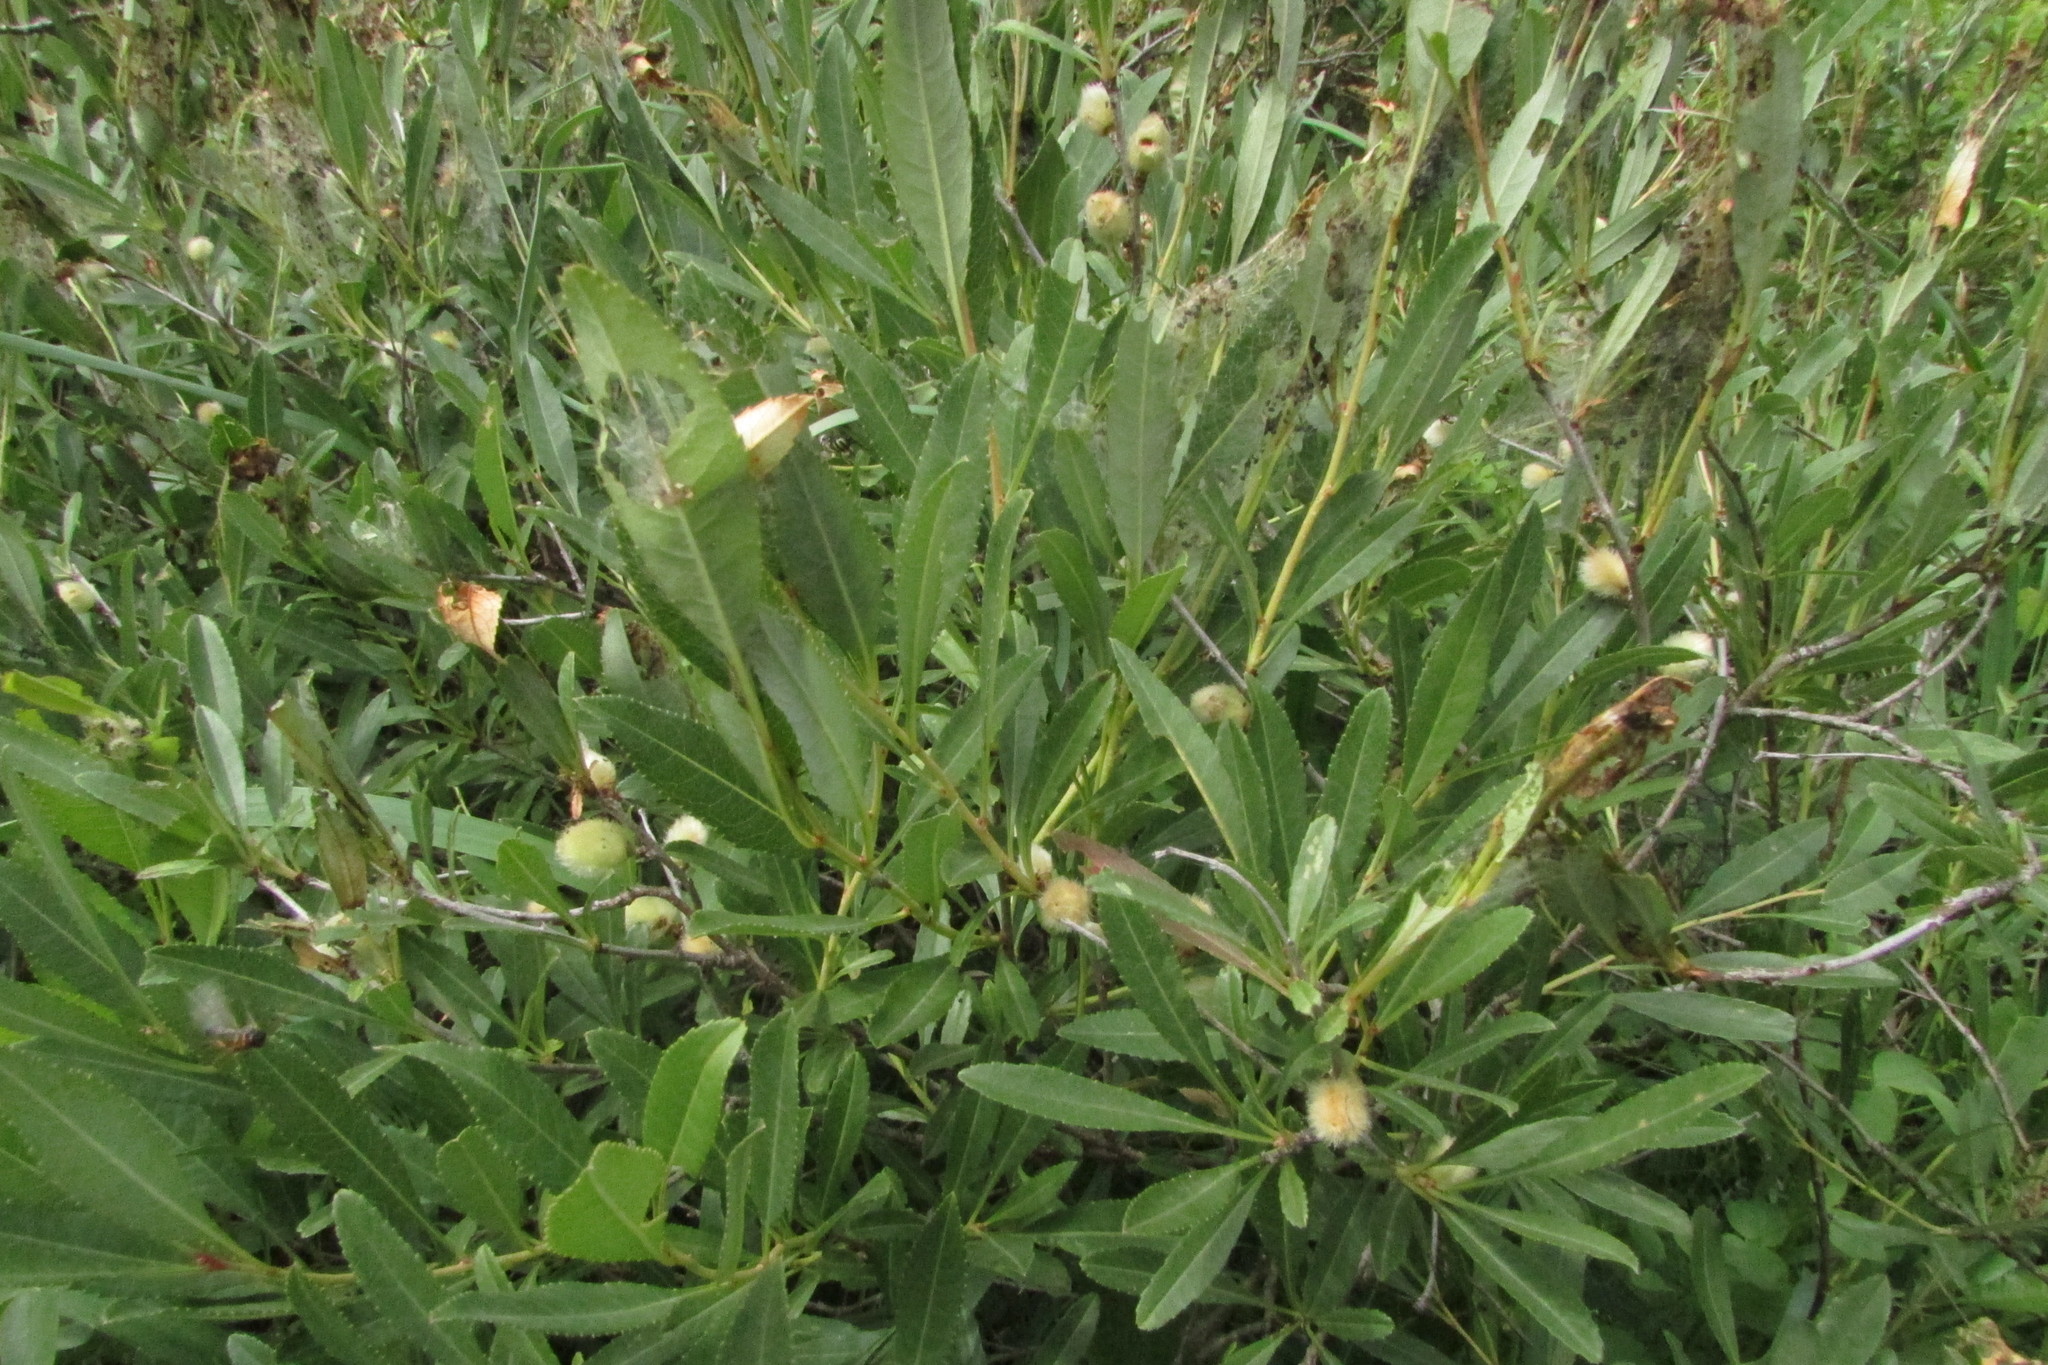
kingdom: Plantae
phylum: Tracheophyta
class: Magnoliopsida
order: Rosales
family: Rosaceae
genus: Prunus
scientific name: Prunus tenella
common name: Dwarf russian almond
